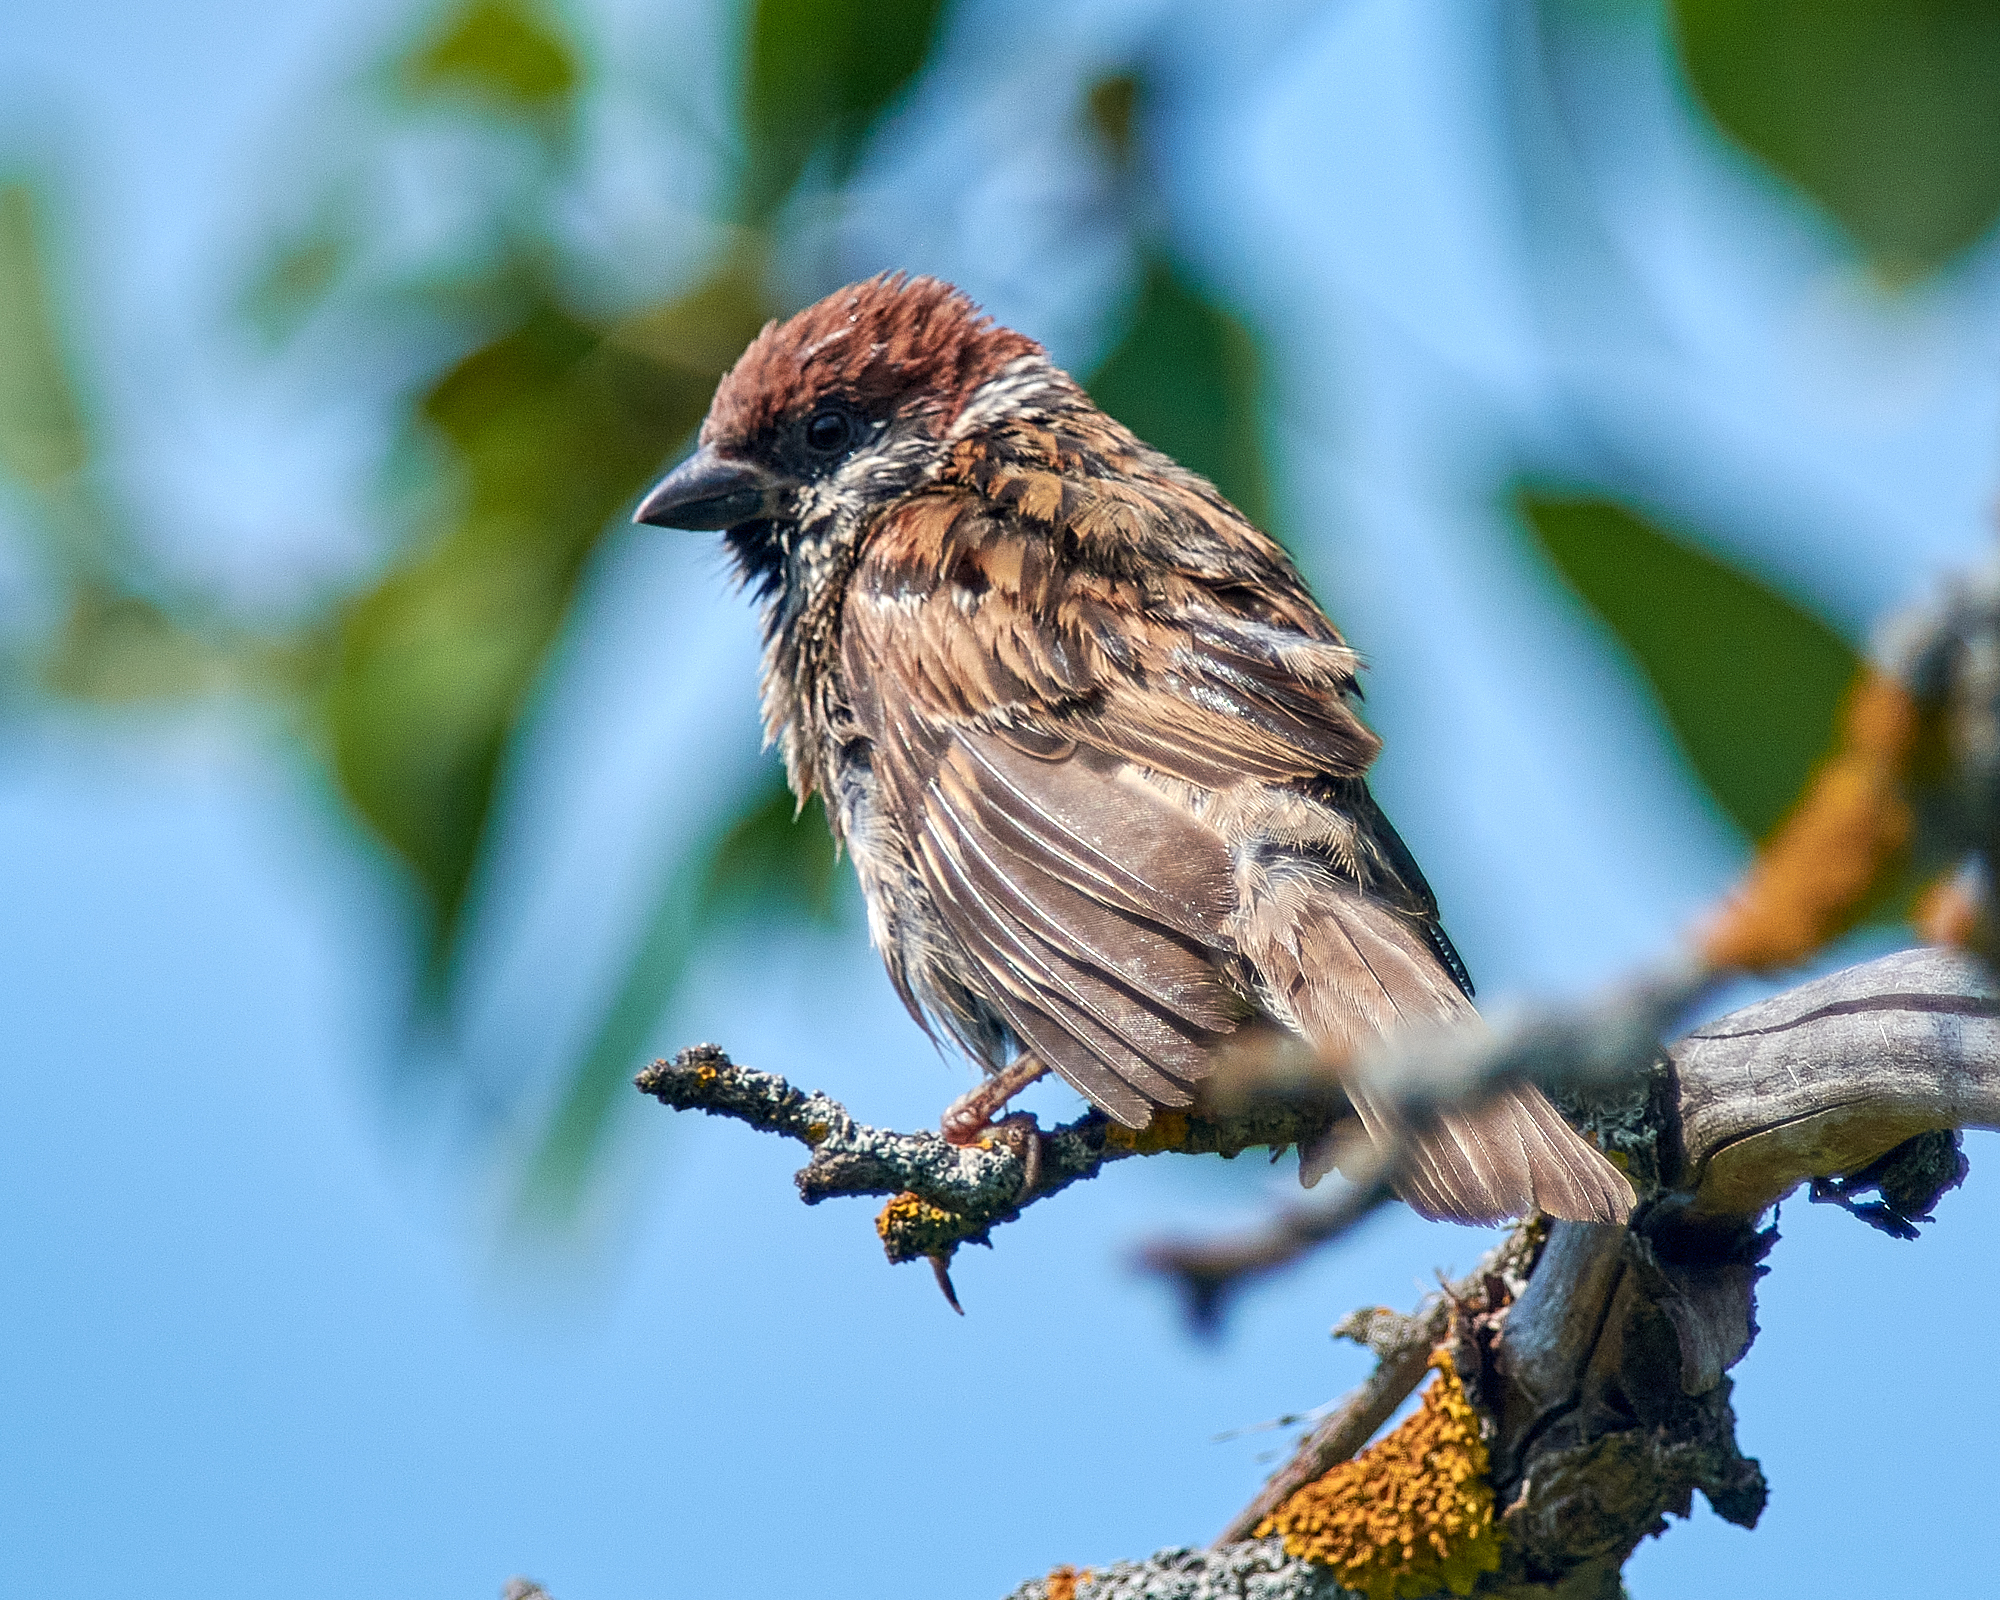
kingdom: Animalia
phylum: Chordata
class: Aves
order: Passeriformes
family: Passeridae
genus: Passer
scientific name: Passer montanus
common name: Eurasian tree sparrow
